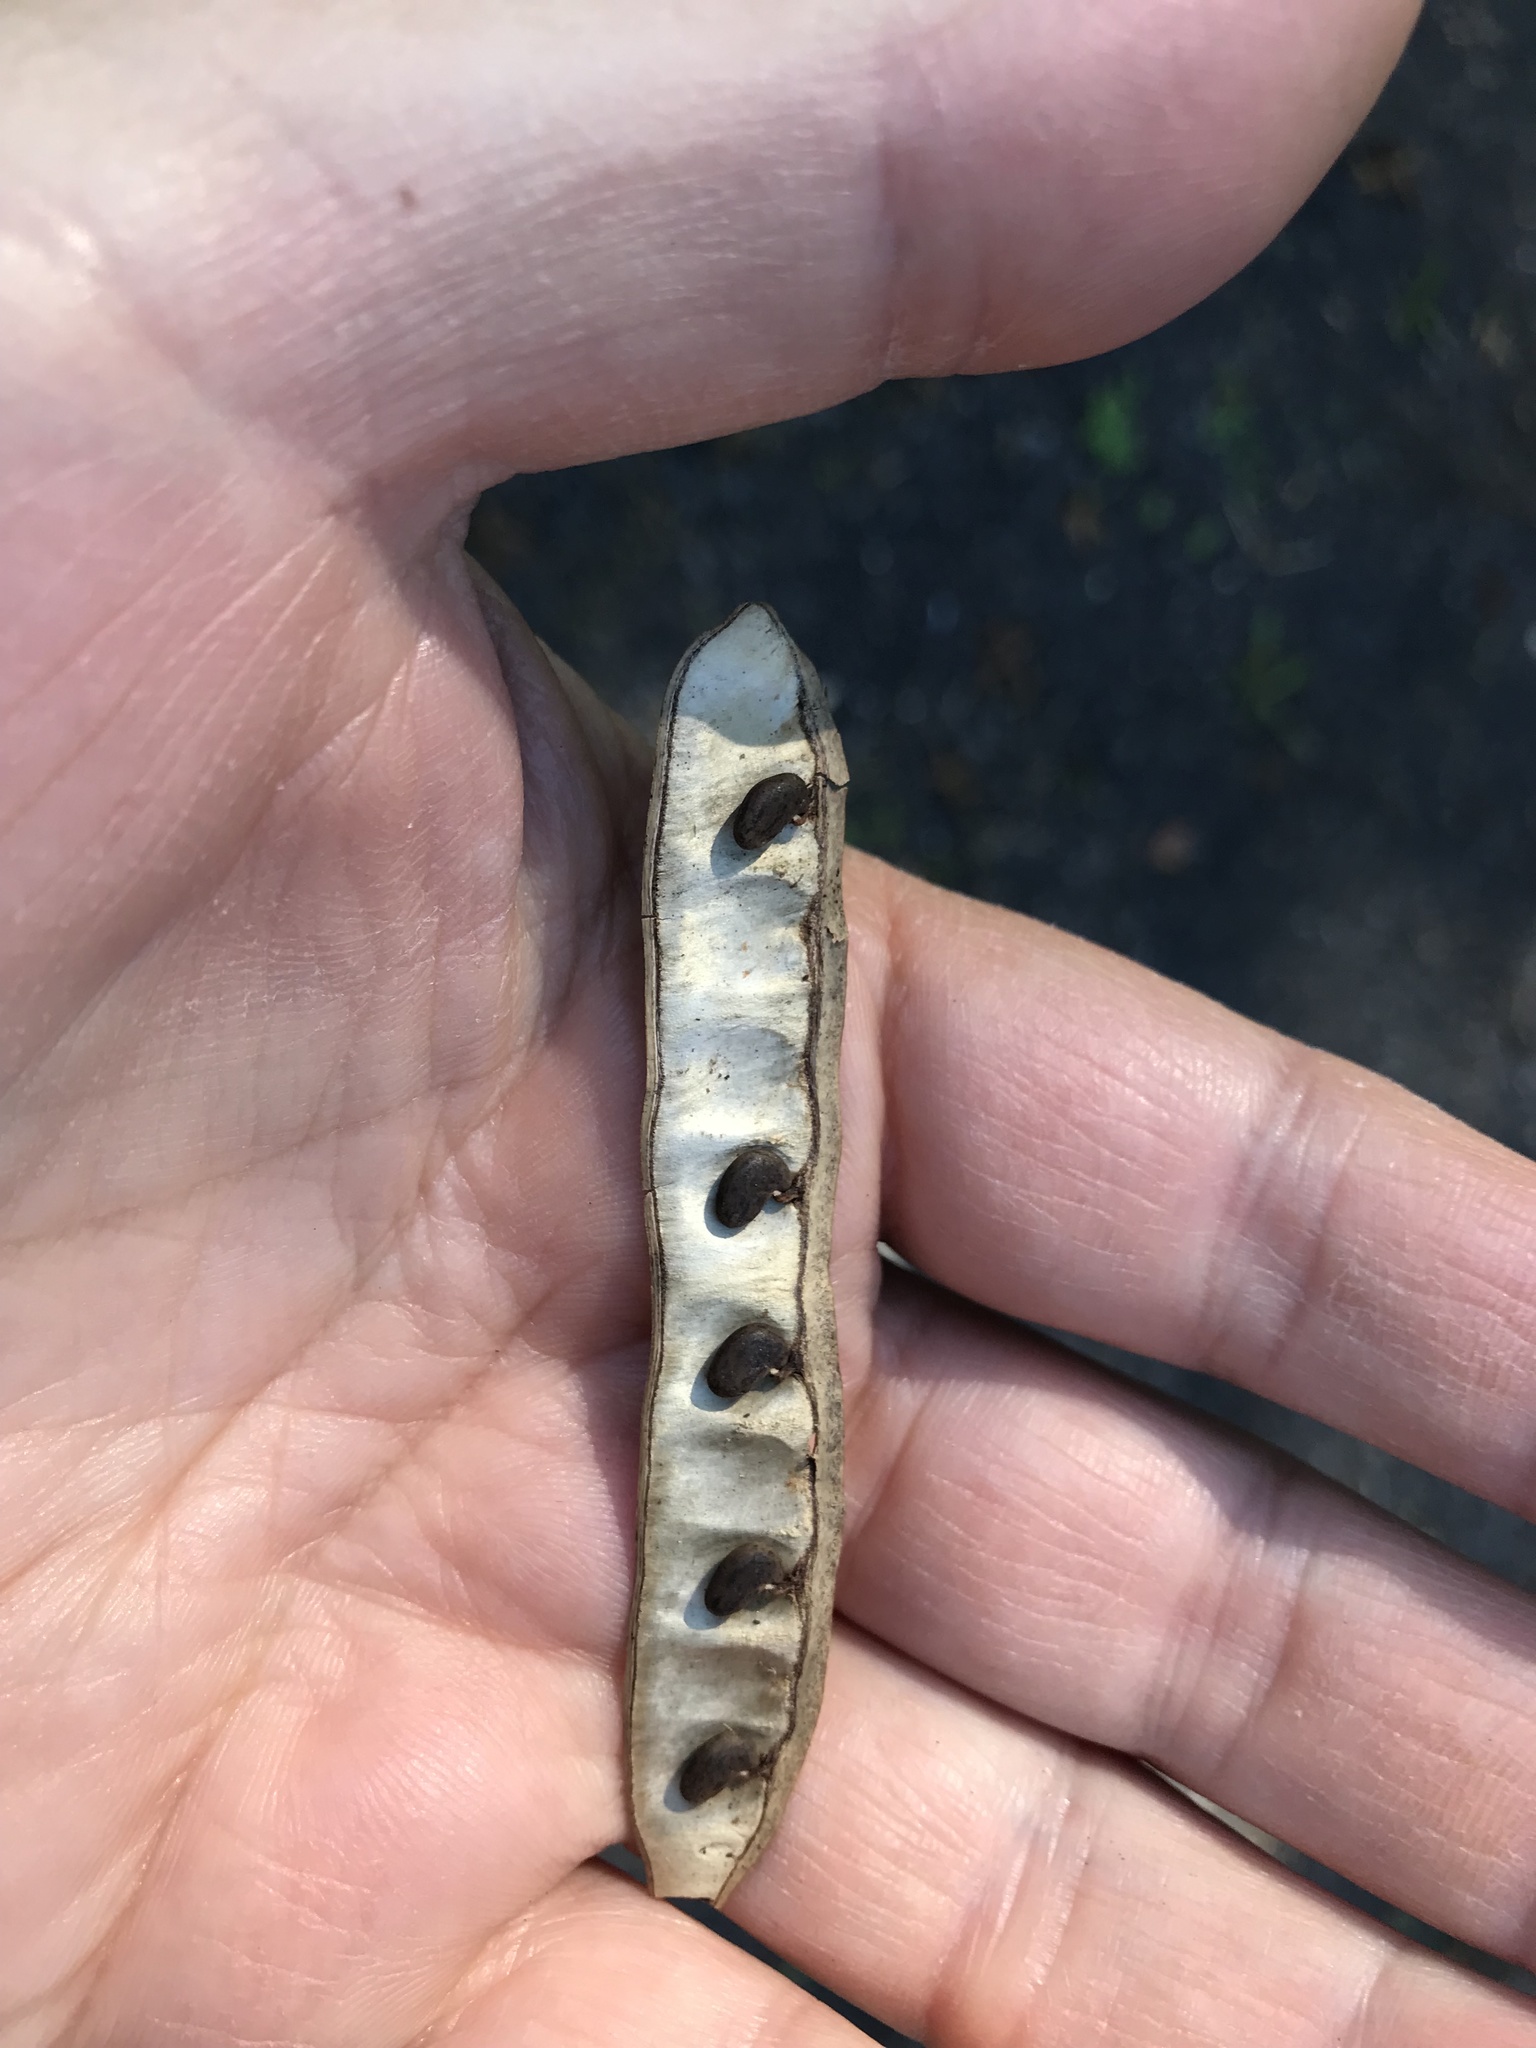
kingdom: Plantae
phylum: Tracheophyta
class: Magnoliopsida
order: Fabales
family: Fabaceae
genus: Robinia
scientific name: Robinia pseudoacacia
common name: Black locust
